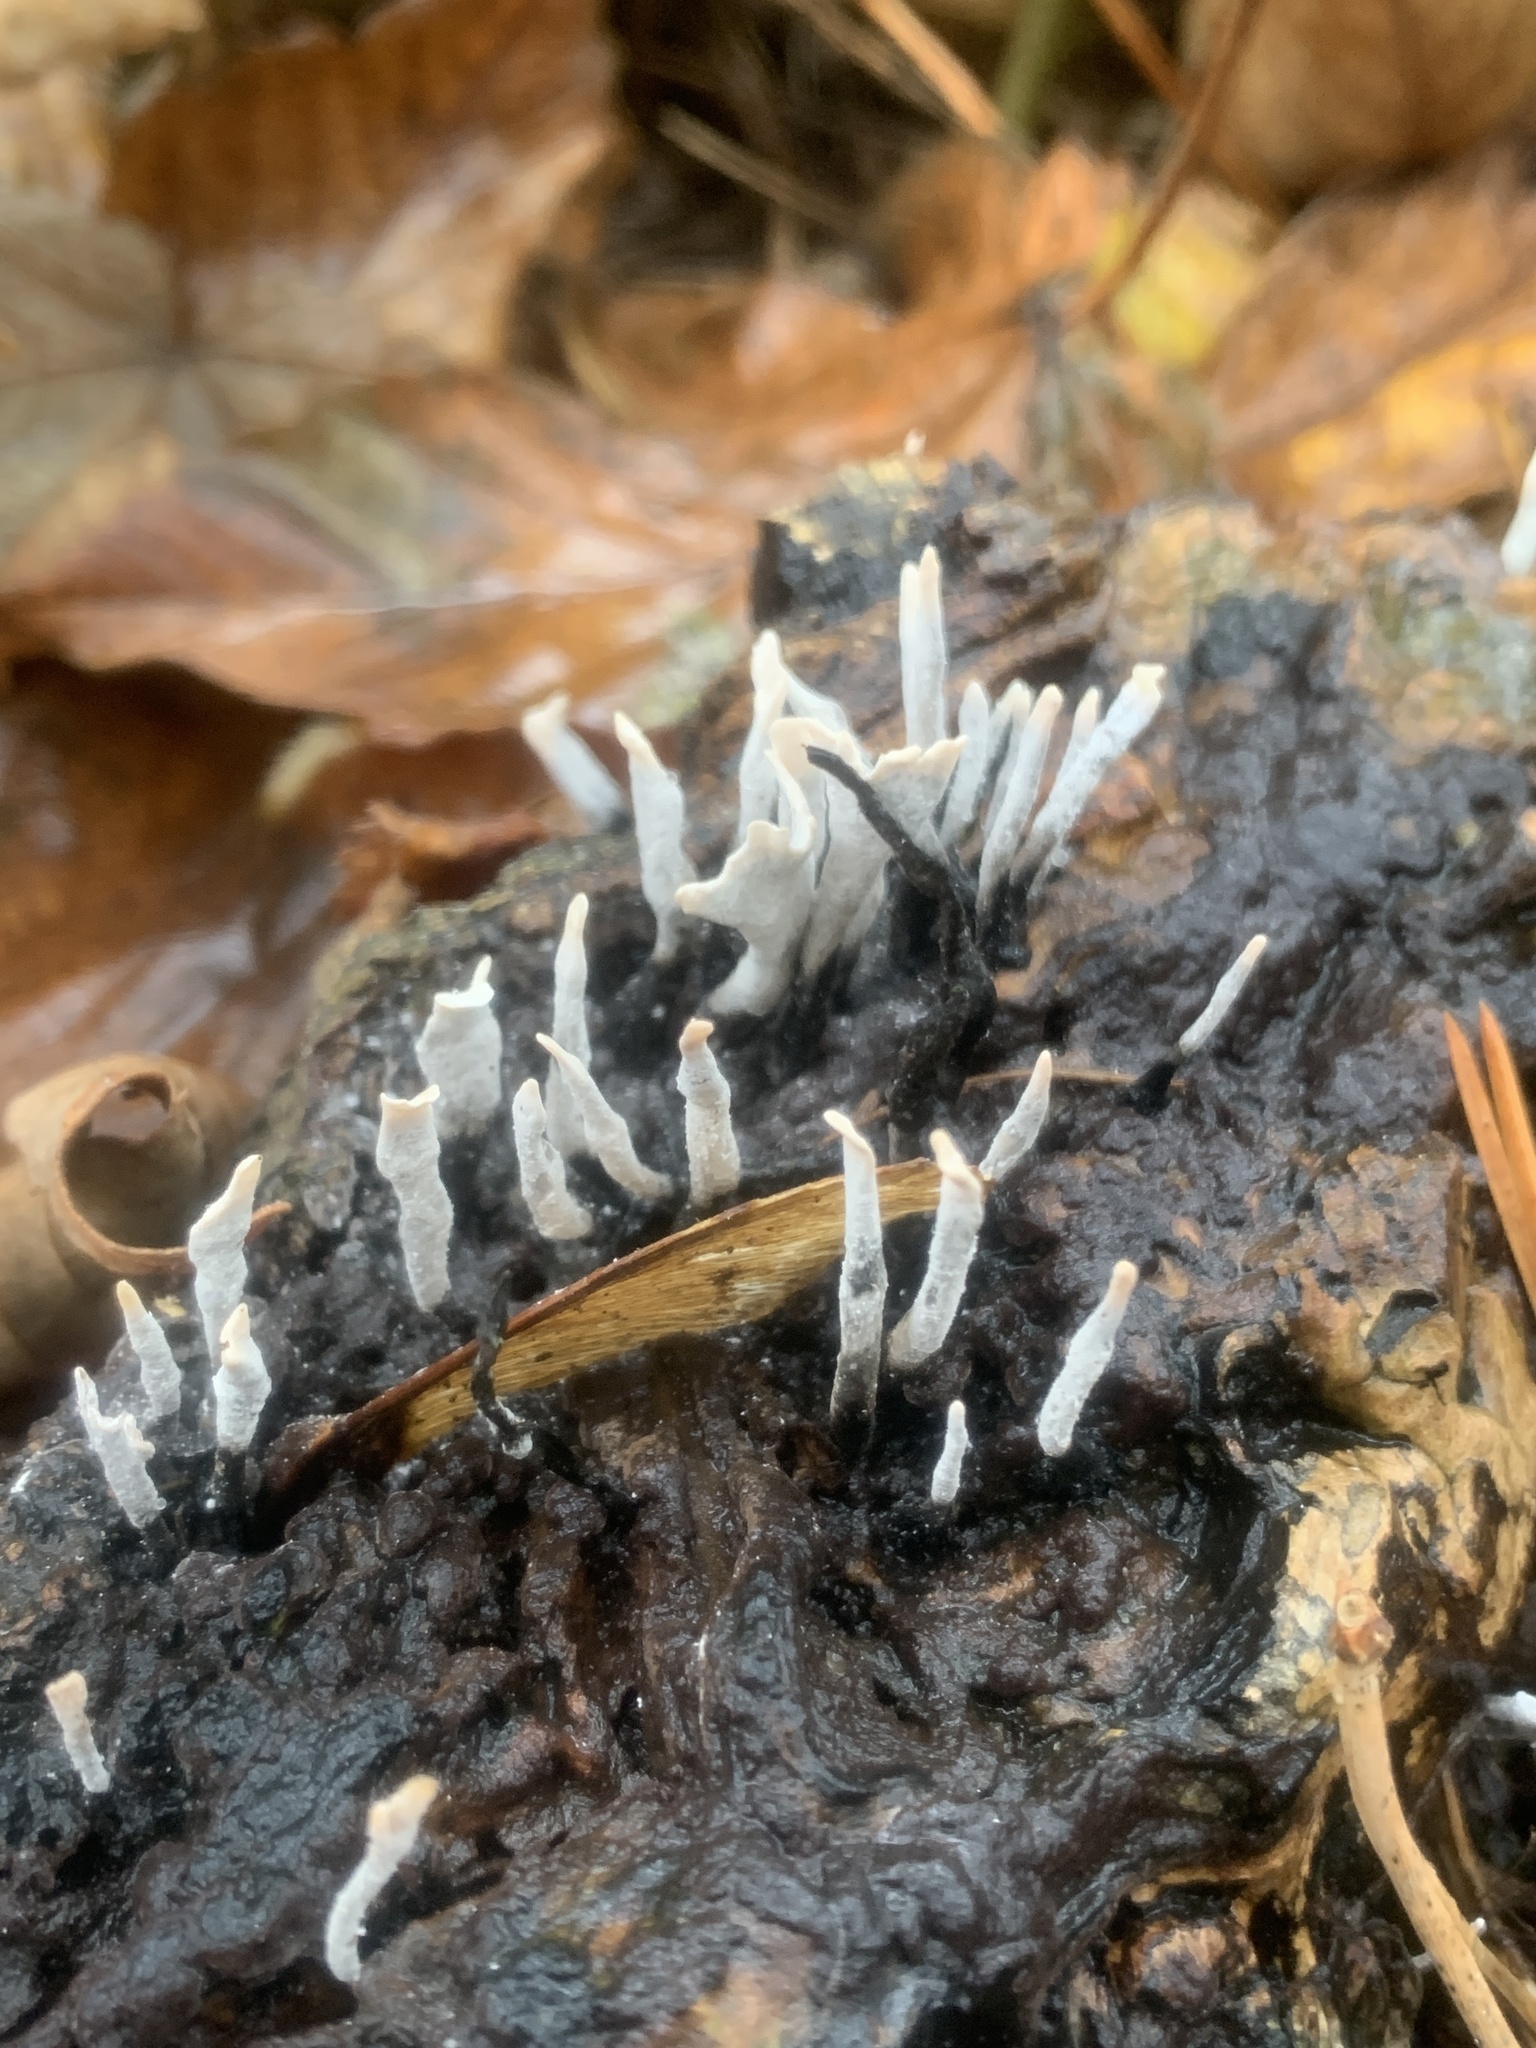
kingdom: Fungi
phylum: Ascomycota
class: Sordariomycetes
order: Xylariales
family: Xylariaceae
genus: Xylaria
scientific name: Xylaria hypoxylon
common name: Candle-snuff fungus
